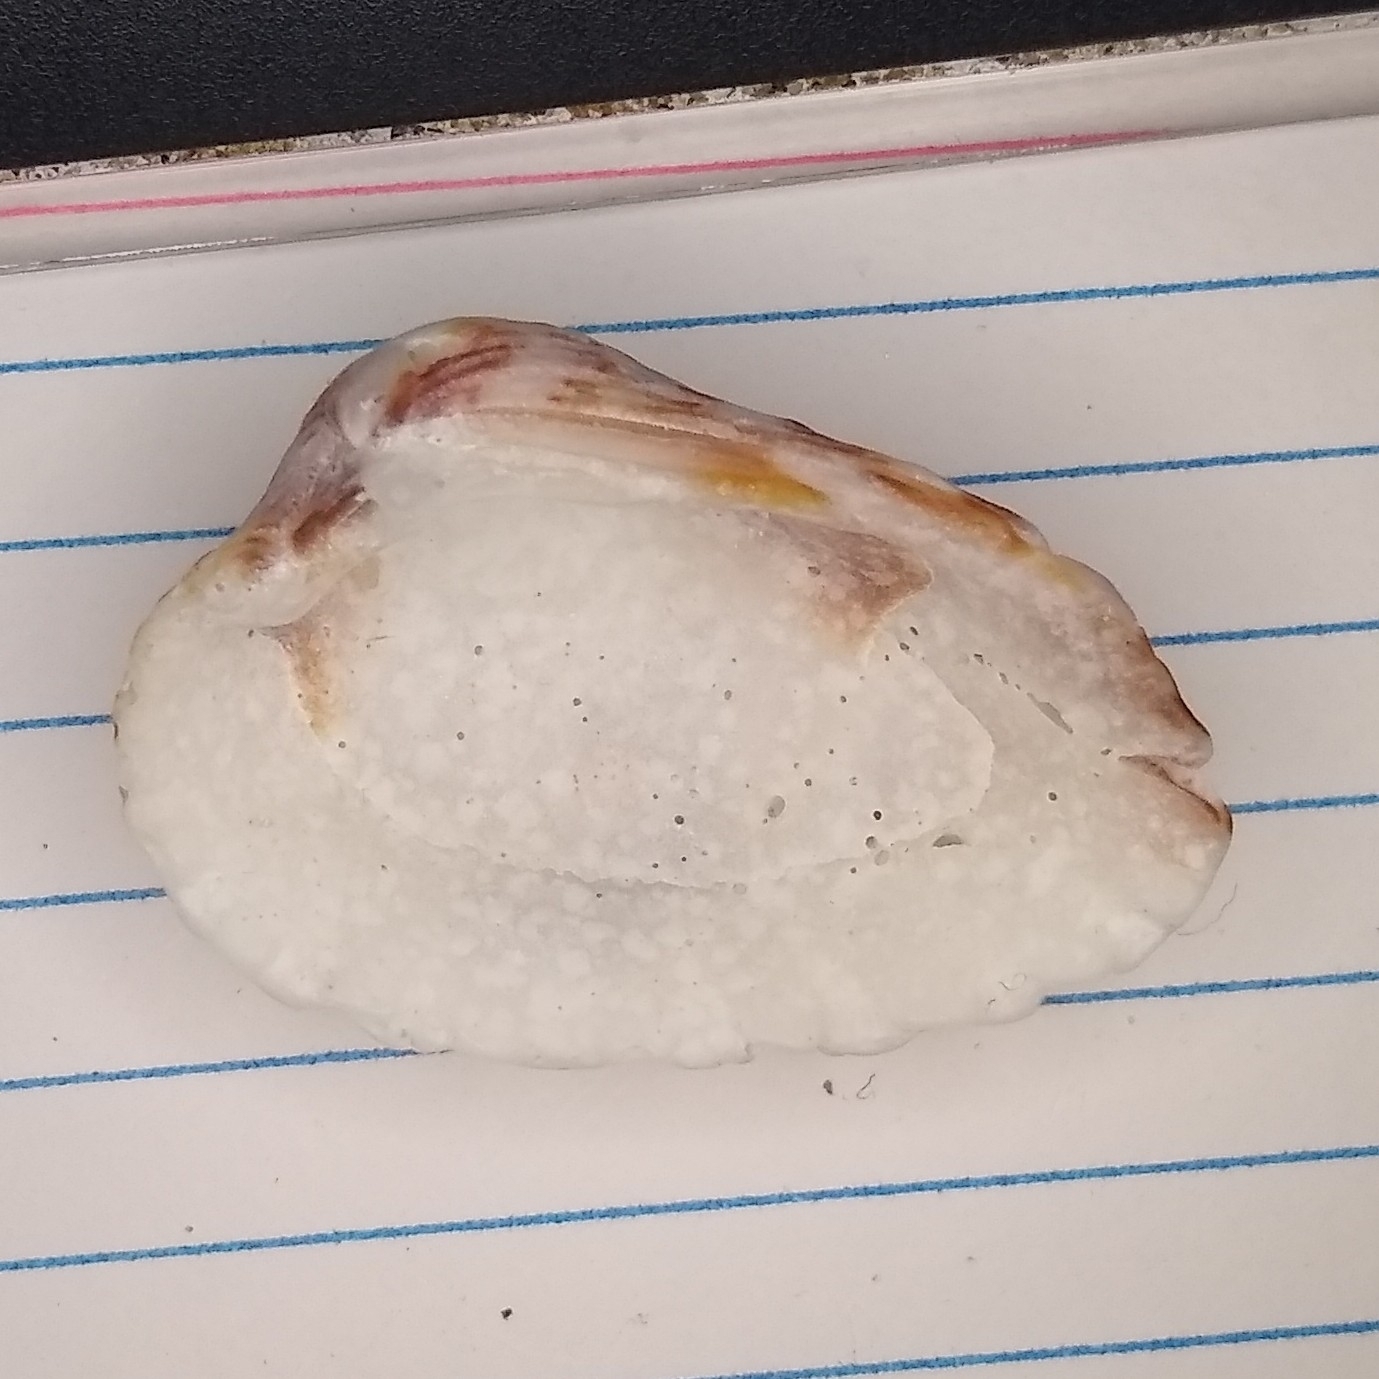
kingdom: Animalia
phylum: Mollusca
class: Bivalvia
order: Carditida
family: Carditidae
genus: Cardites
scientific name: Cardites floridanus
